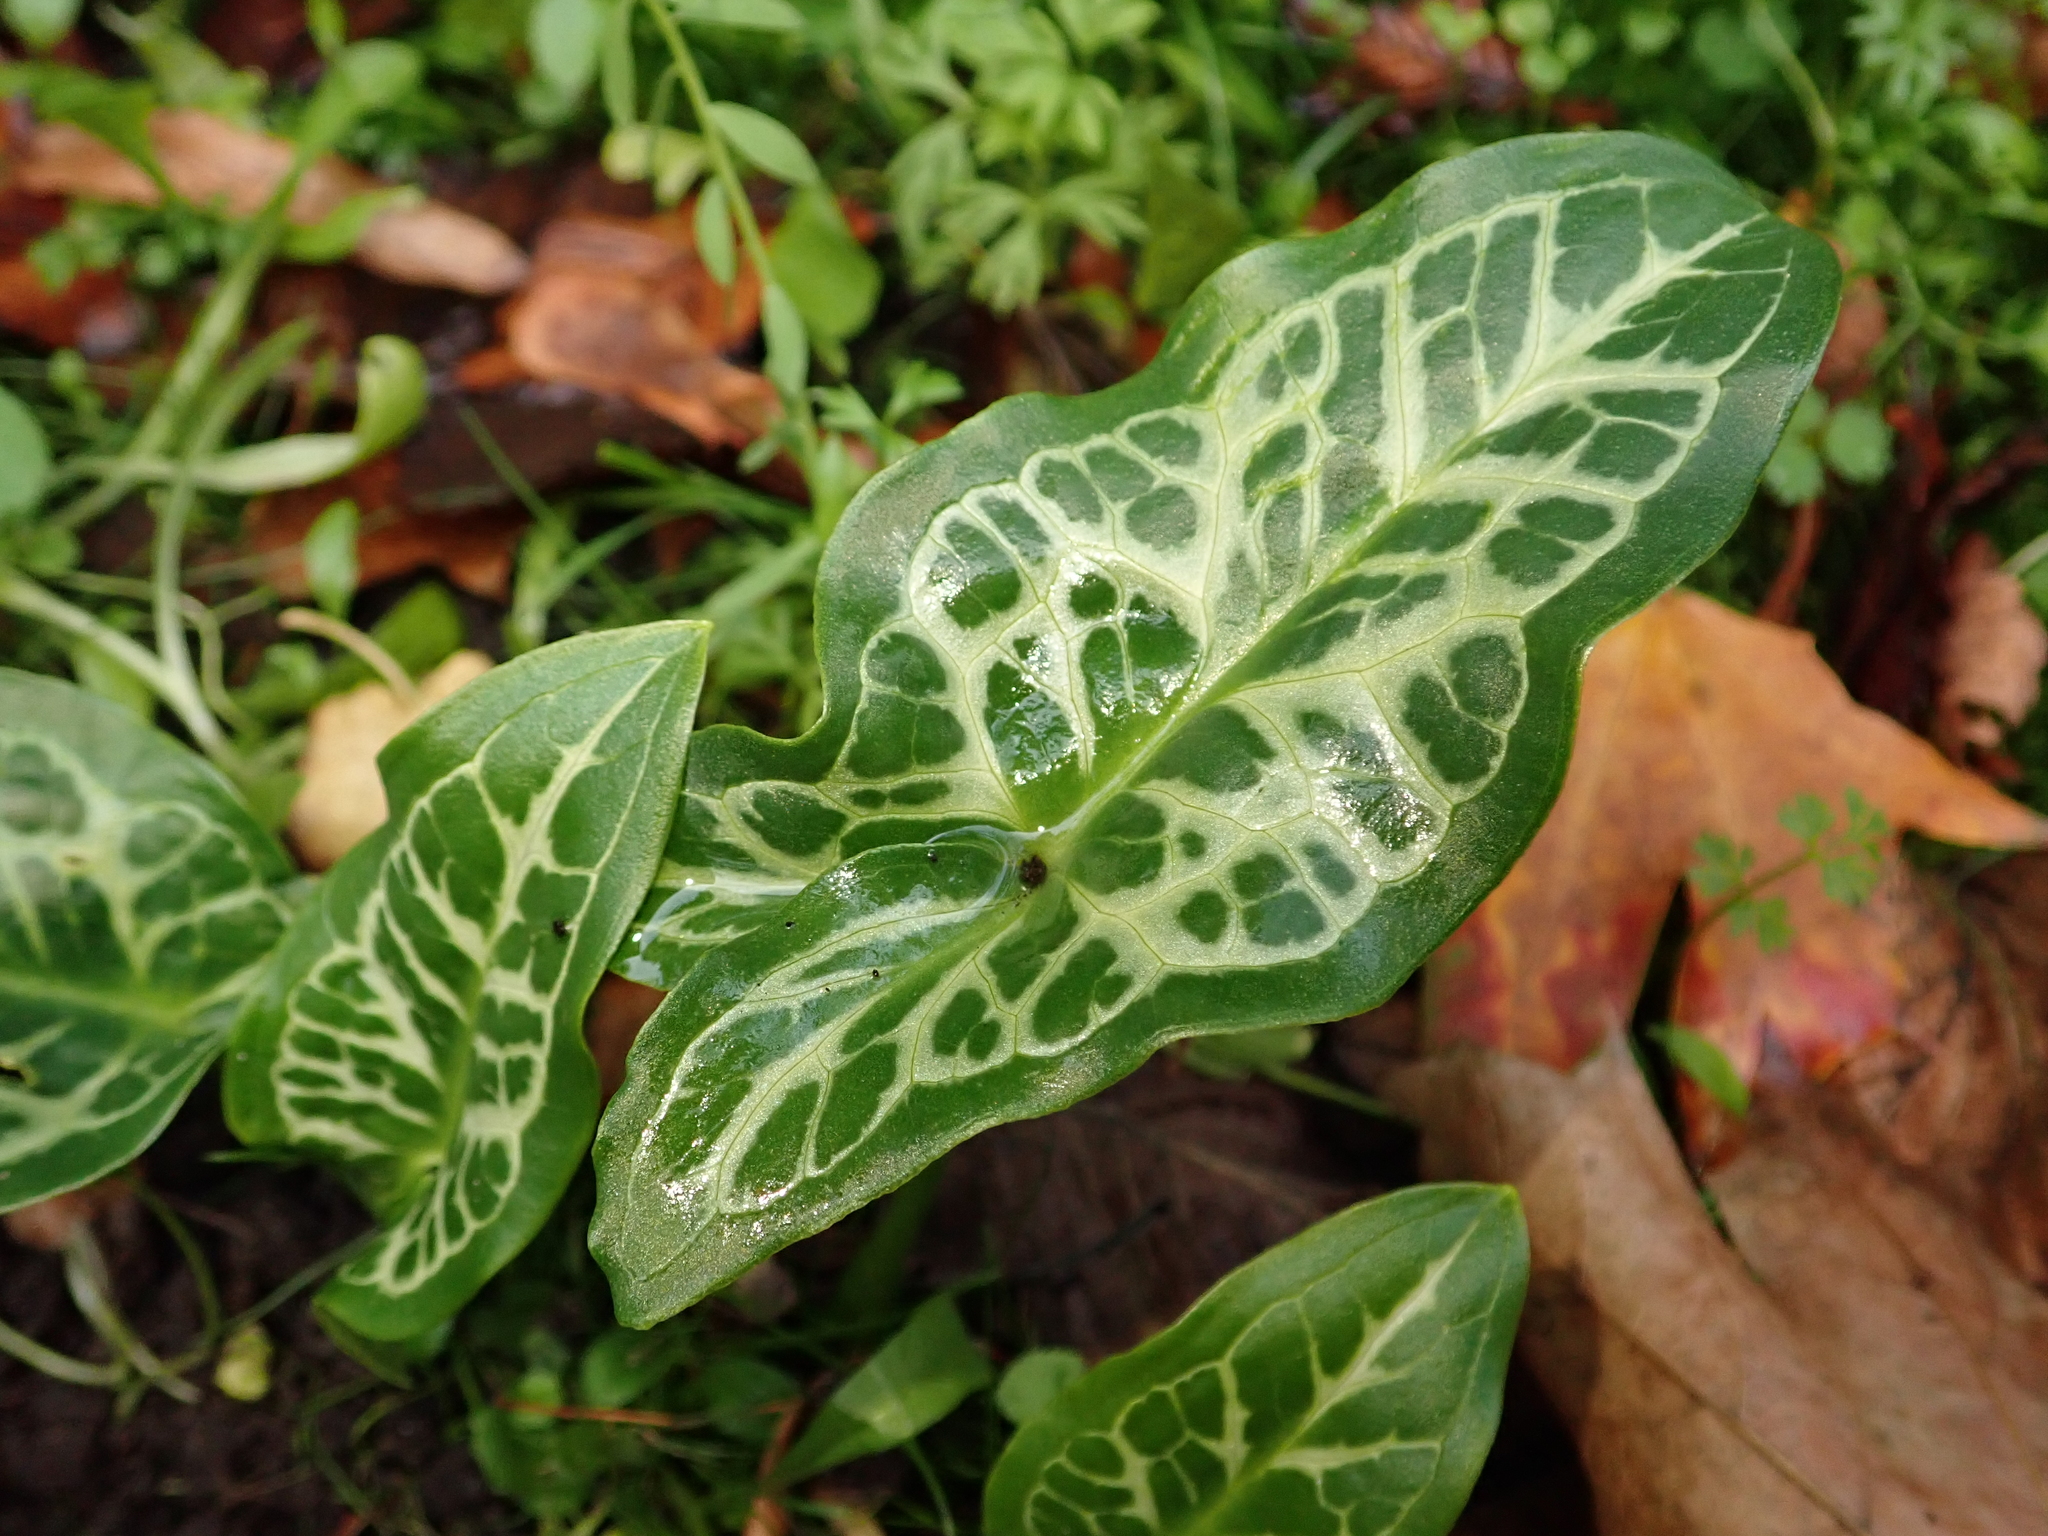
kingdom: Plantae
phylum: Tracheophyta
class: Liliopsida
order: Alismatales
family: Araceae
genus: Arum
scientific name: Arum italicum
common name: Italian lords-and-ladies
